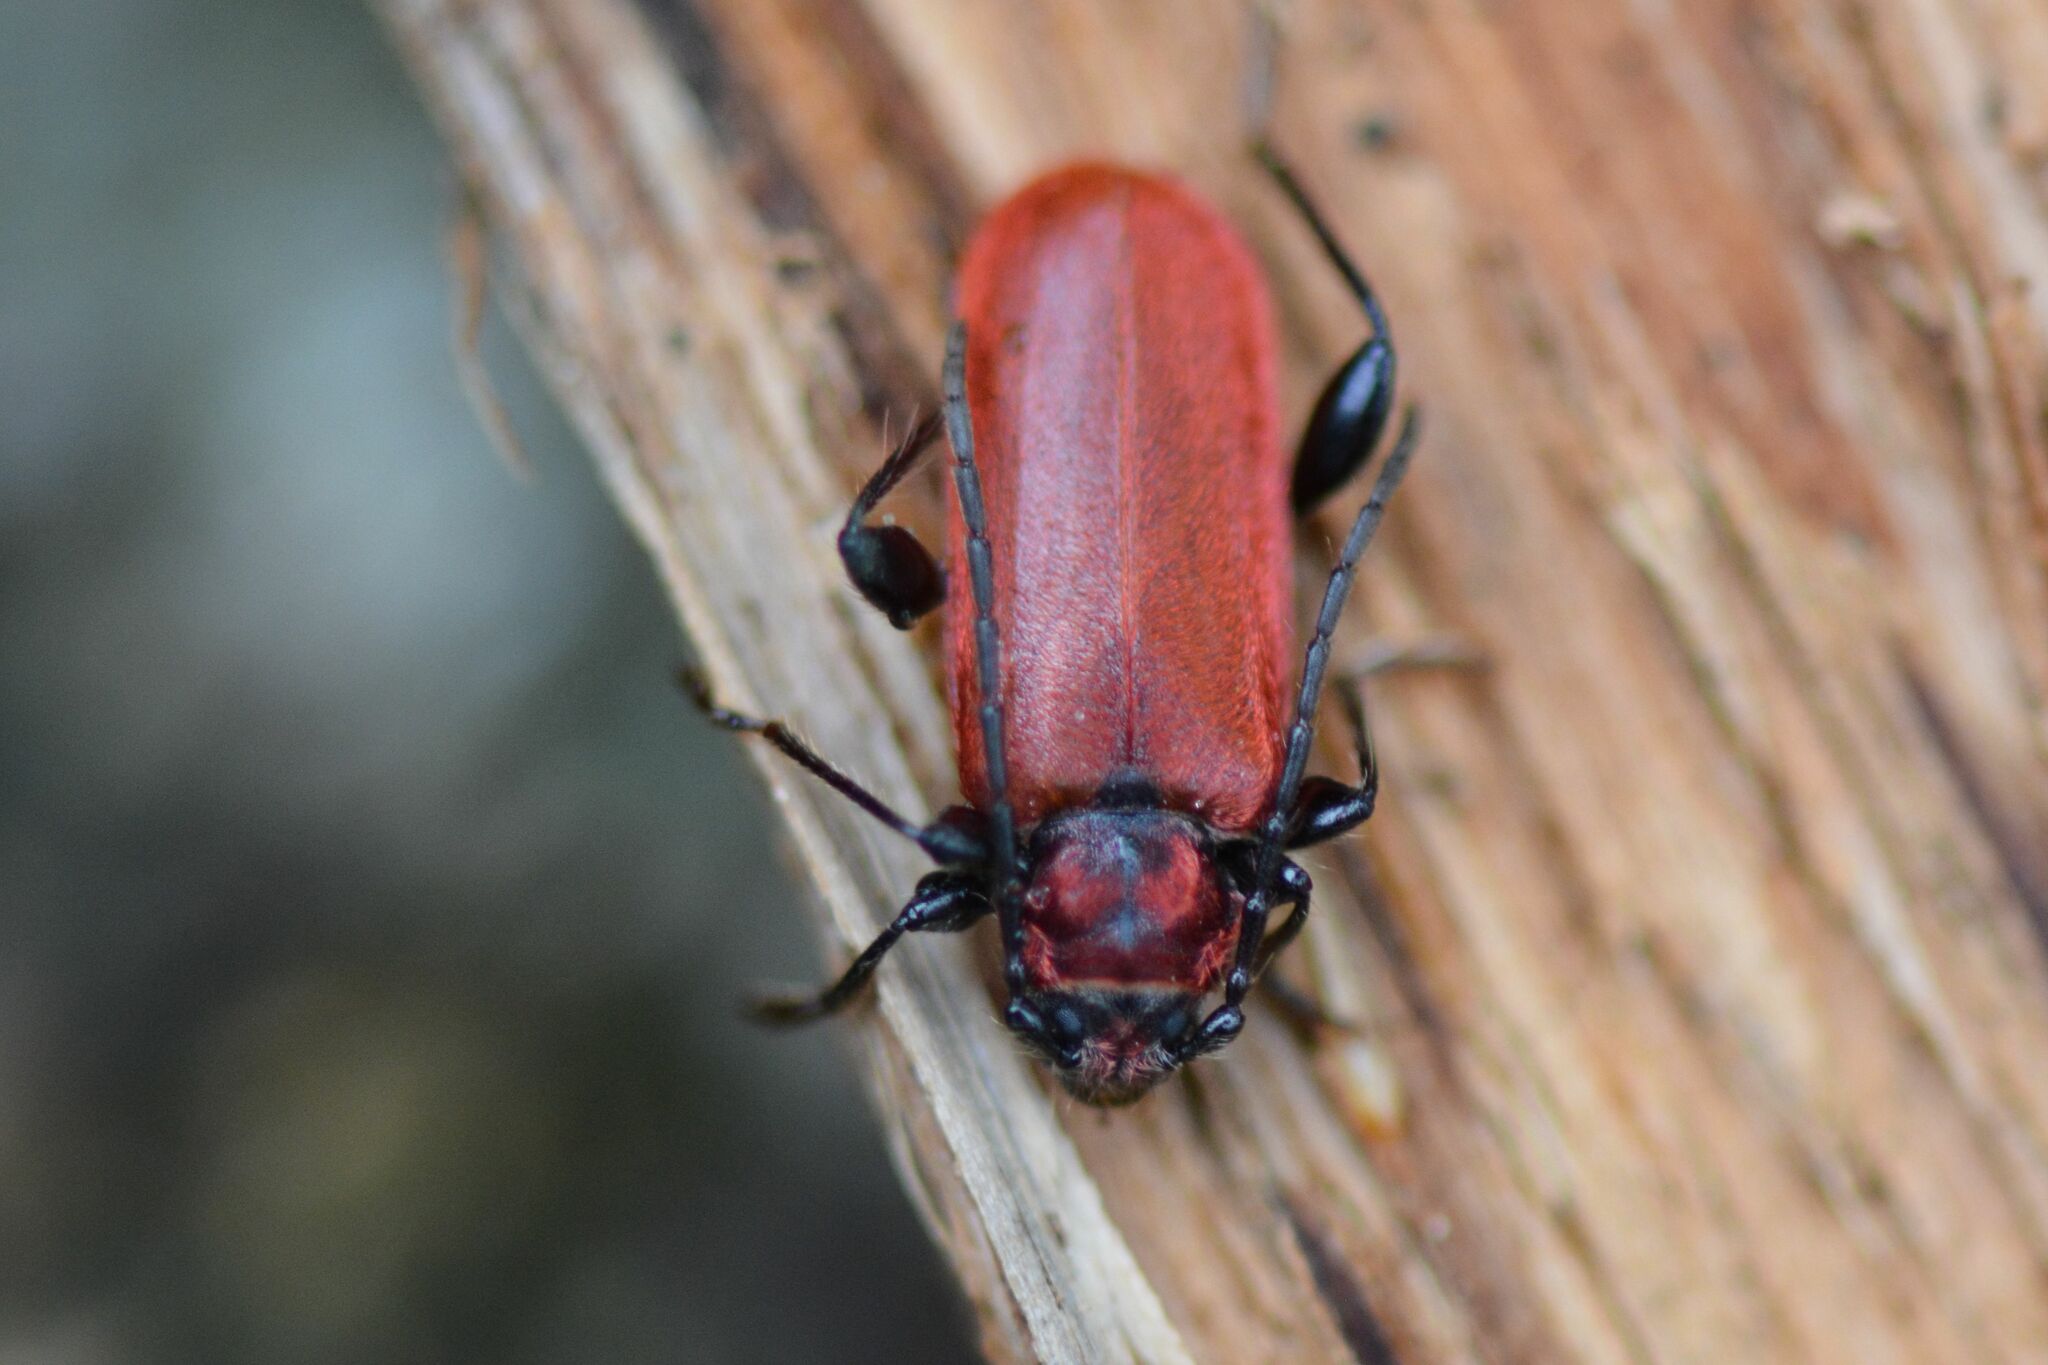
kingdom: Animalia
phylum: Arthropoda
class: Insecta
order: Coleoptera
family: Cerambycidae
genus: Pyrrhidium
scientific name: Pyrrhidium sanguineum
